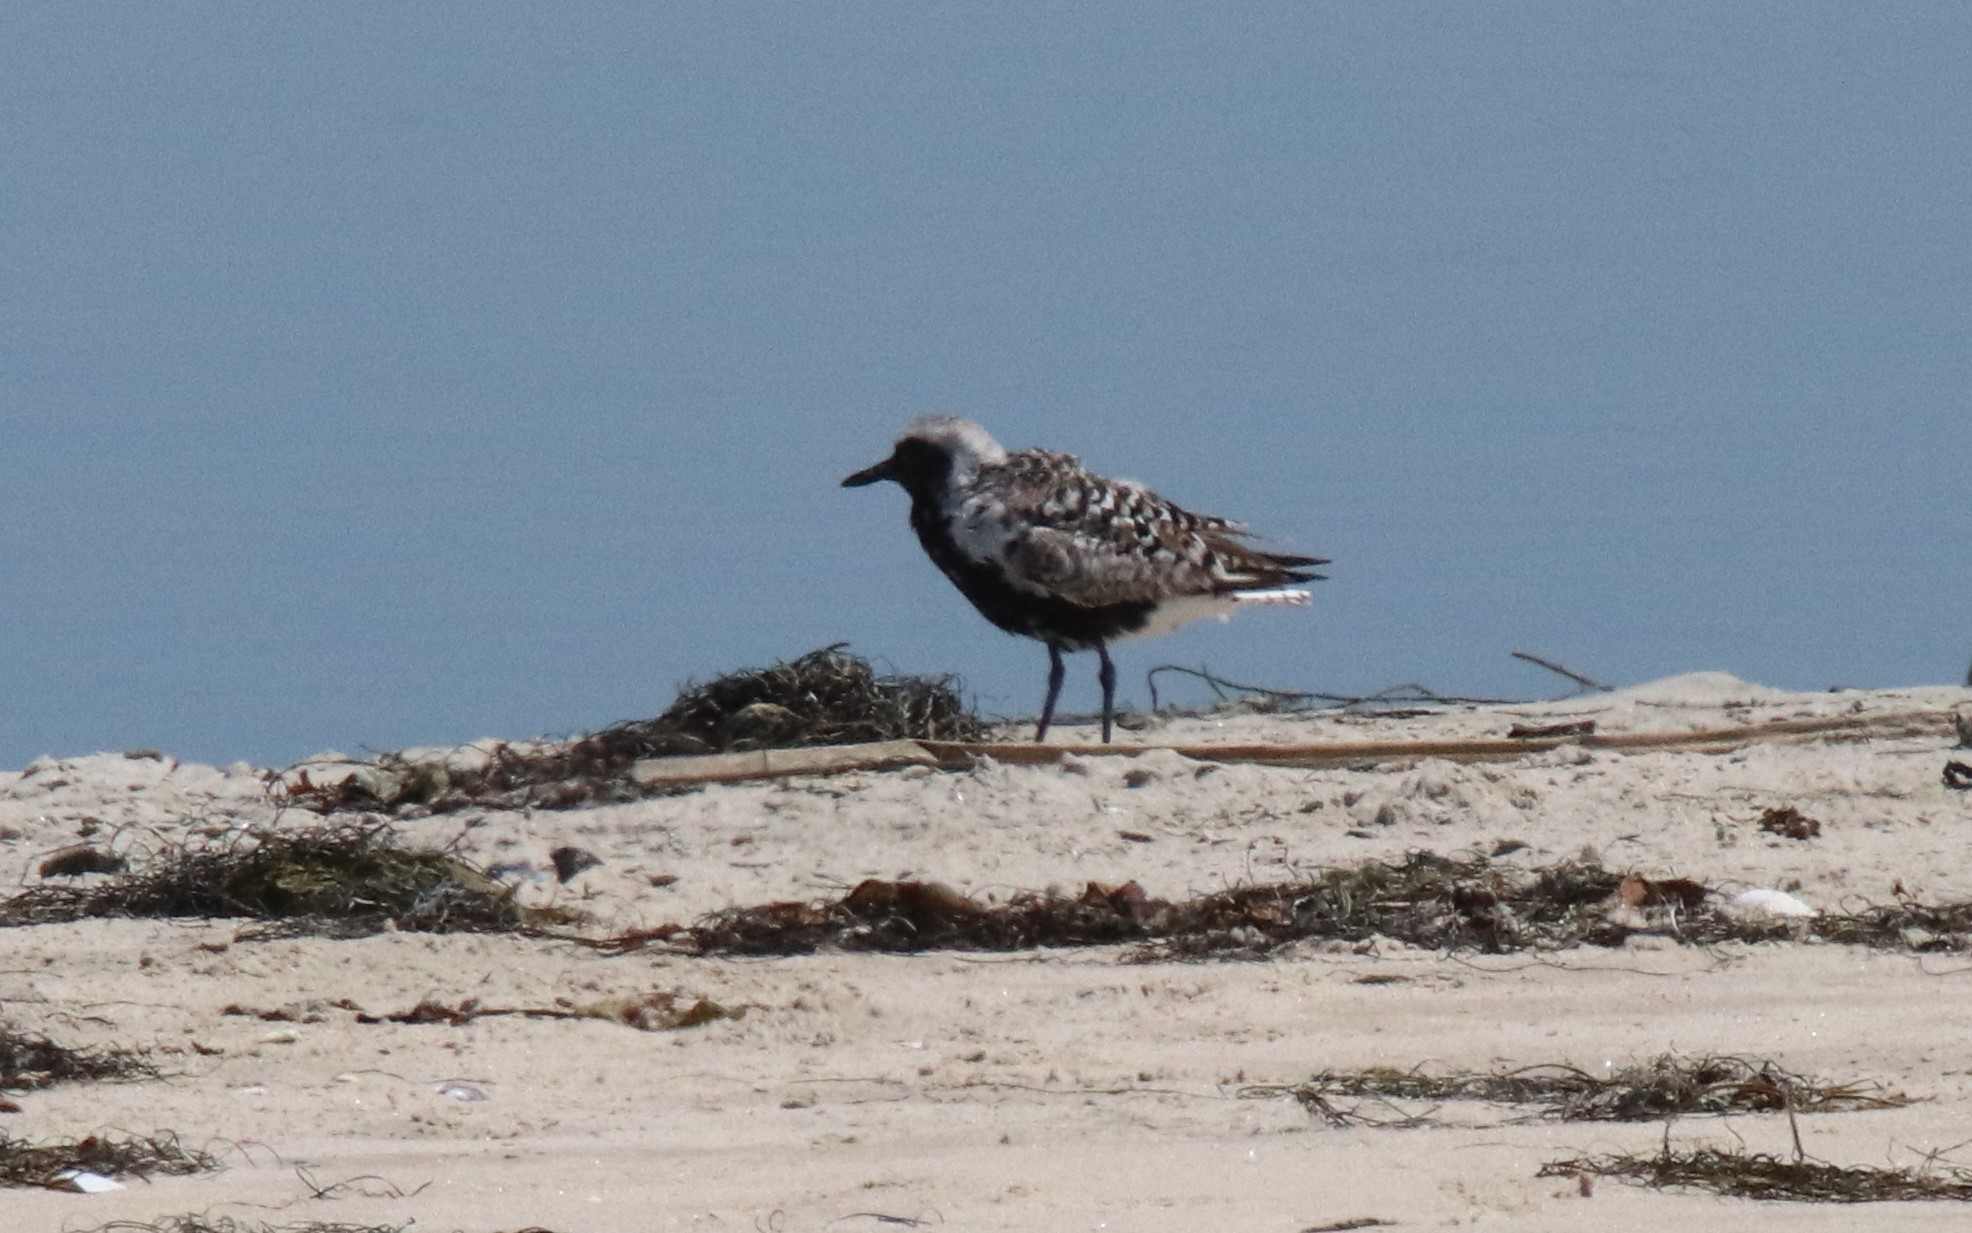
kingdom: Animalia
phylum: Chordata
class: Aves
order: Charadriiformes
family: Charadriidae
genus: Pluvialis
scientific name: Pluvialis squatarola
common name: Grey plover
